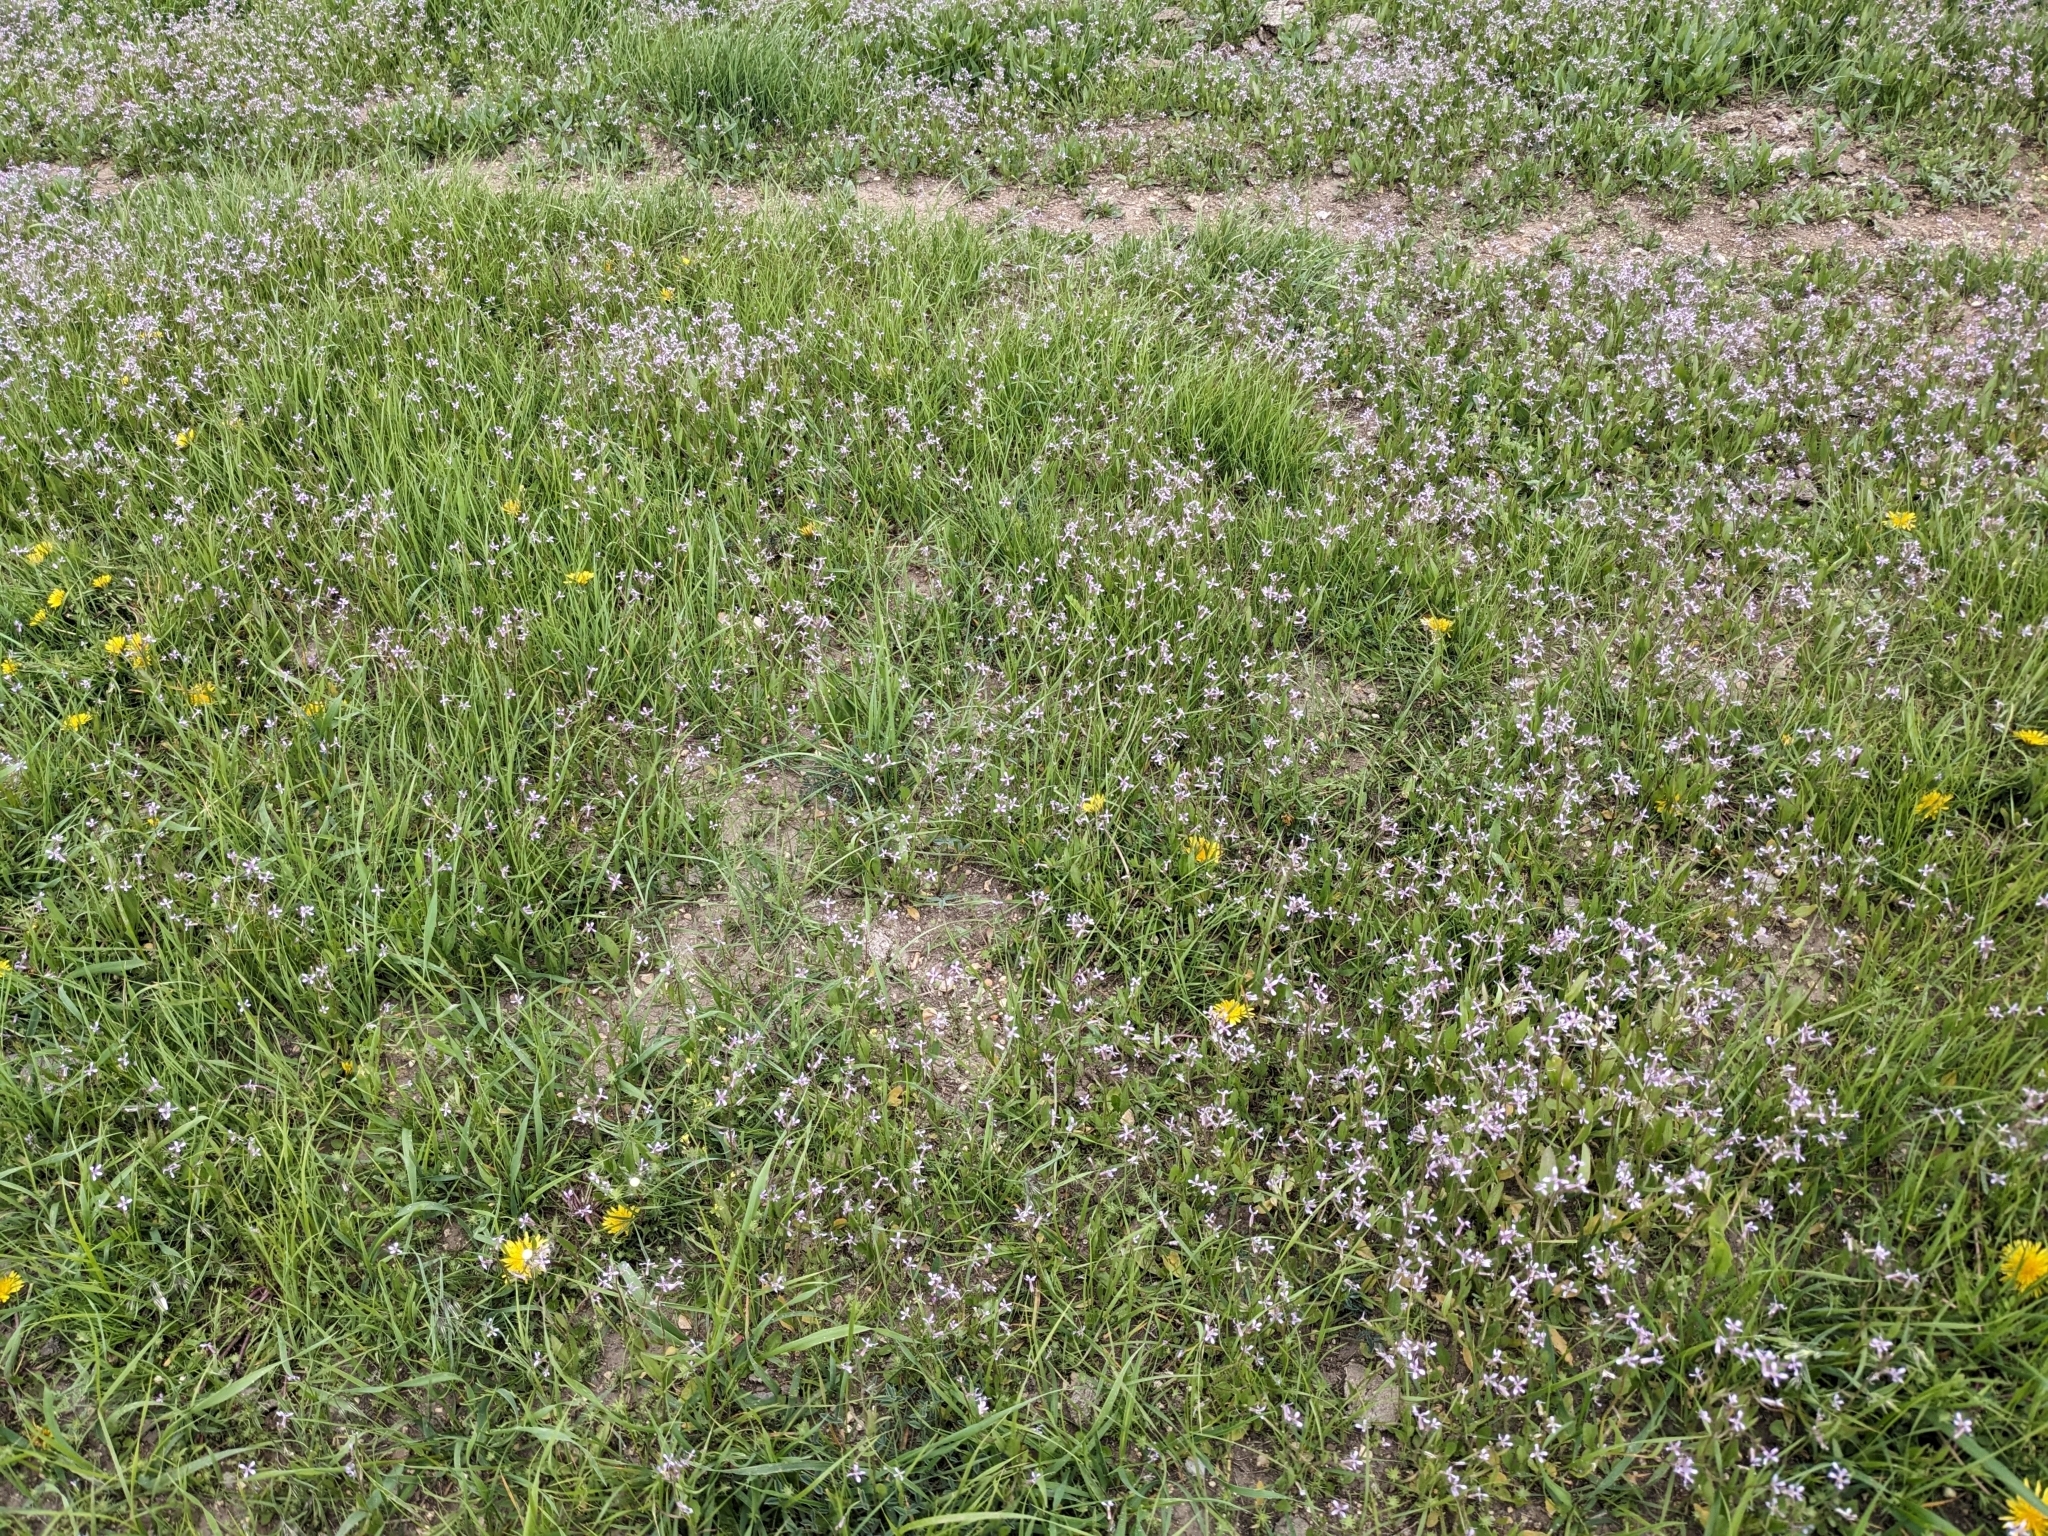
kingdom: Plantae
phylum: Tracheophyta
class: Magnoliopsida
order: Brassicales
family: Brassicaceae
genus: Chorispora
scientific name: Chorispora tenella
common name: Crossflower
